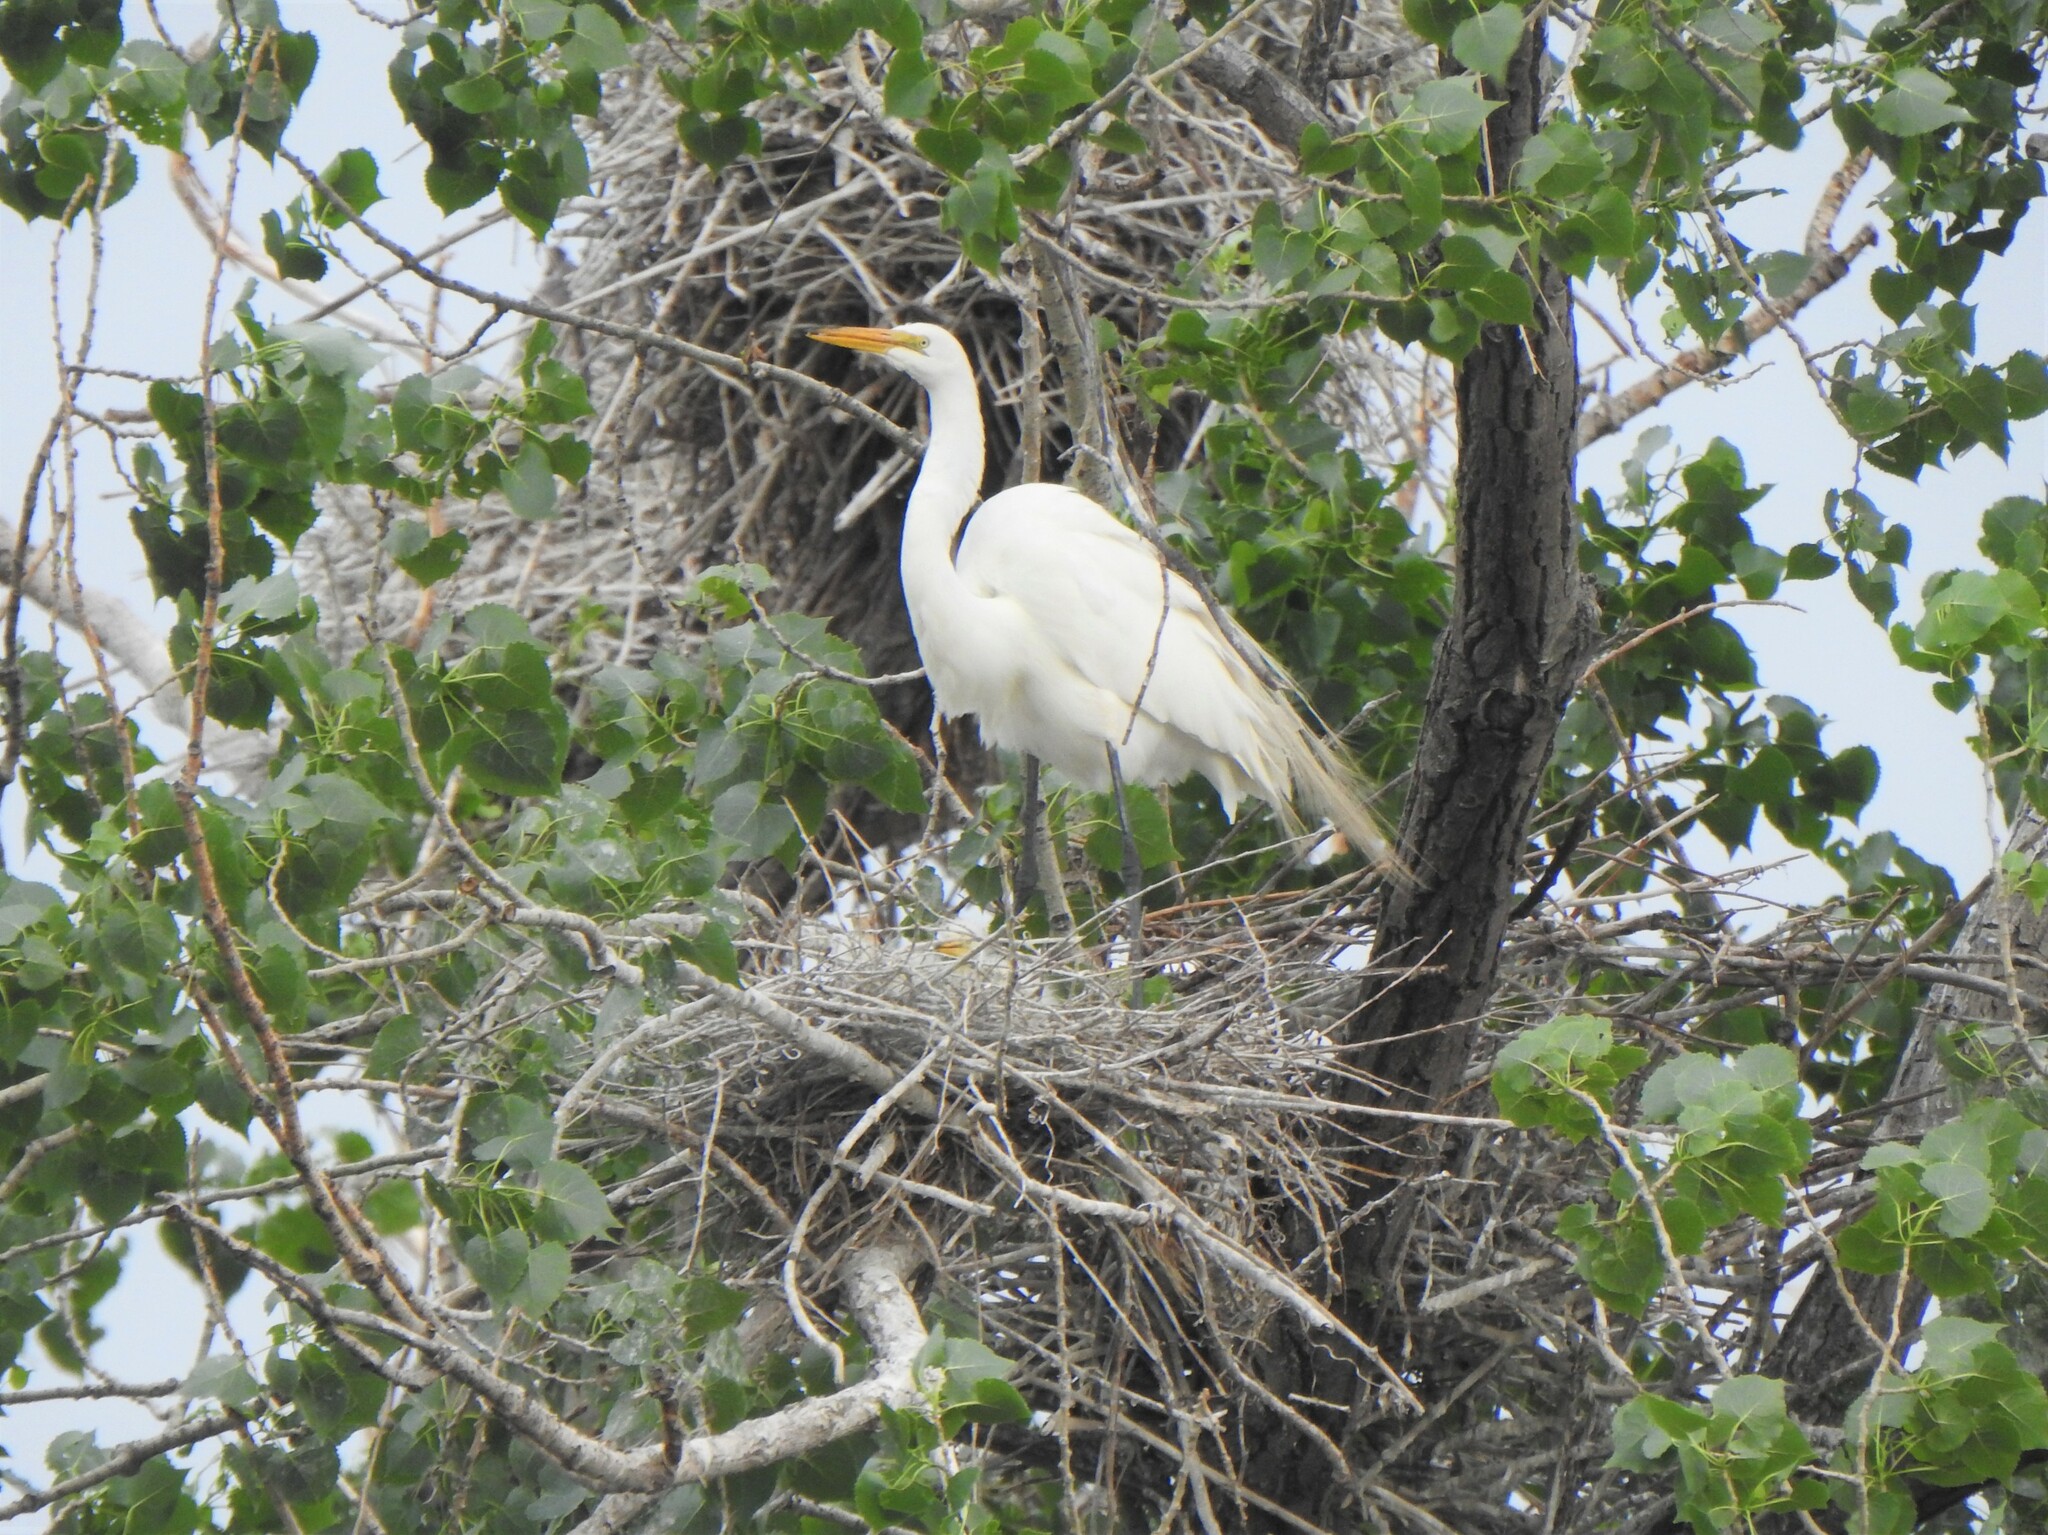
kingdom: Animalia
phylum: Chordata
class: Aves
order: Pelecaniformes
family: Ardeidae
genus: Ardea
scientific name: Ardea alba
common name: Great egret
